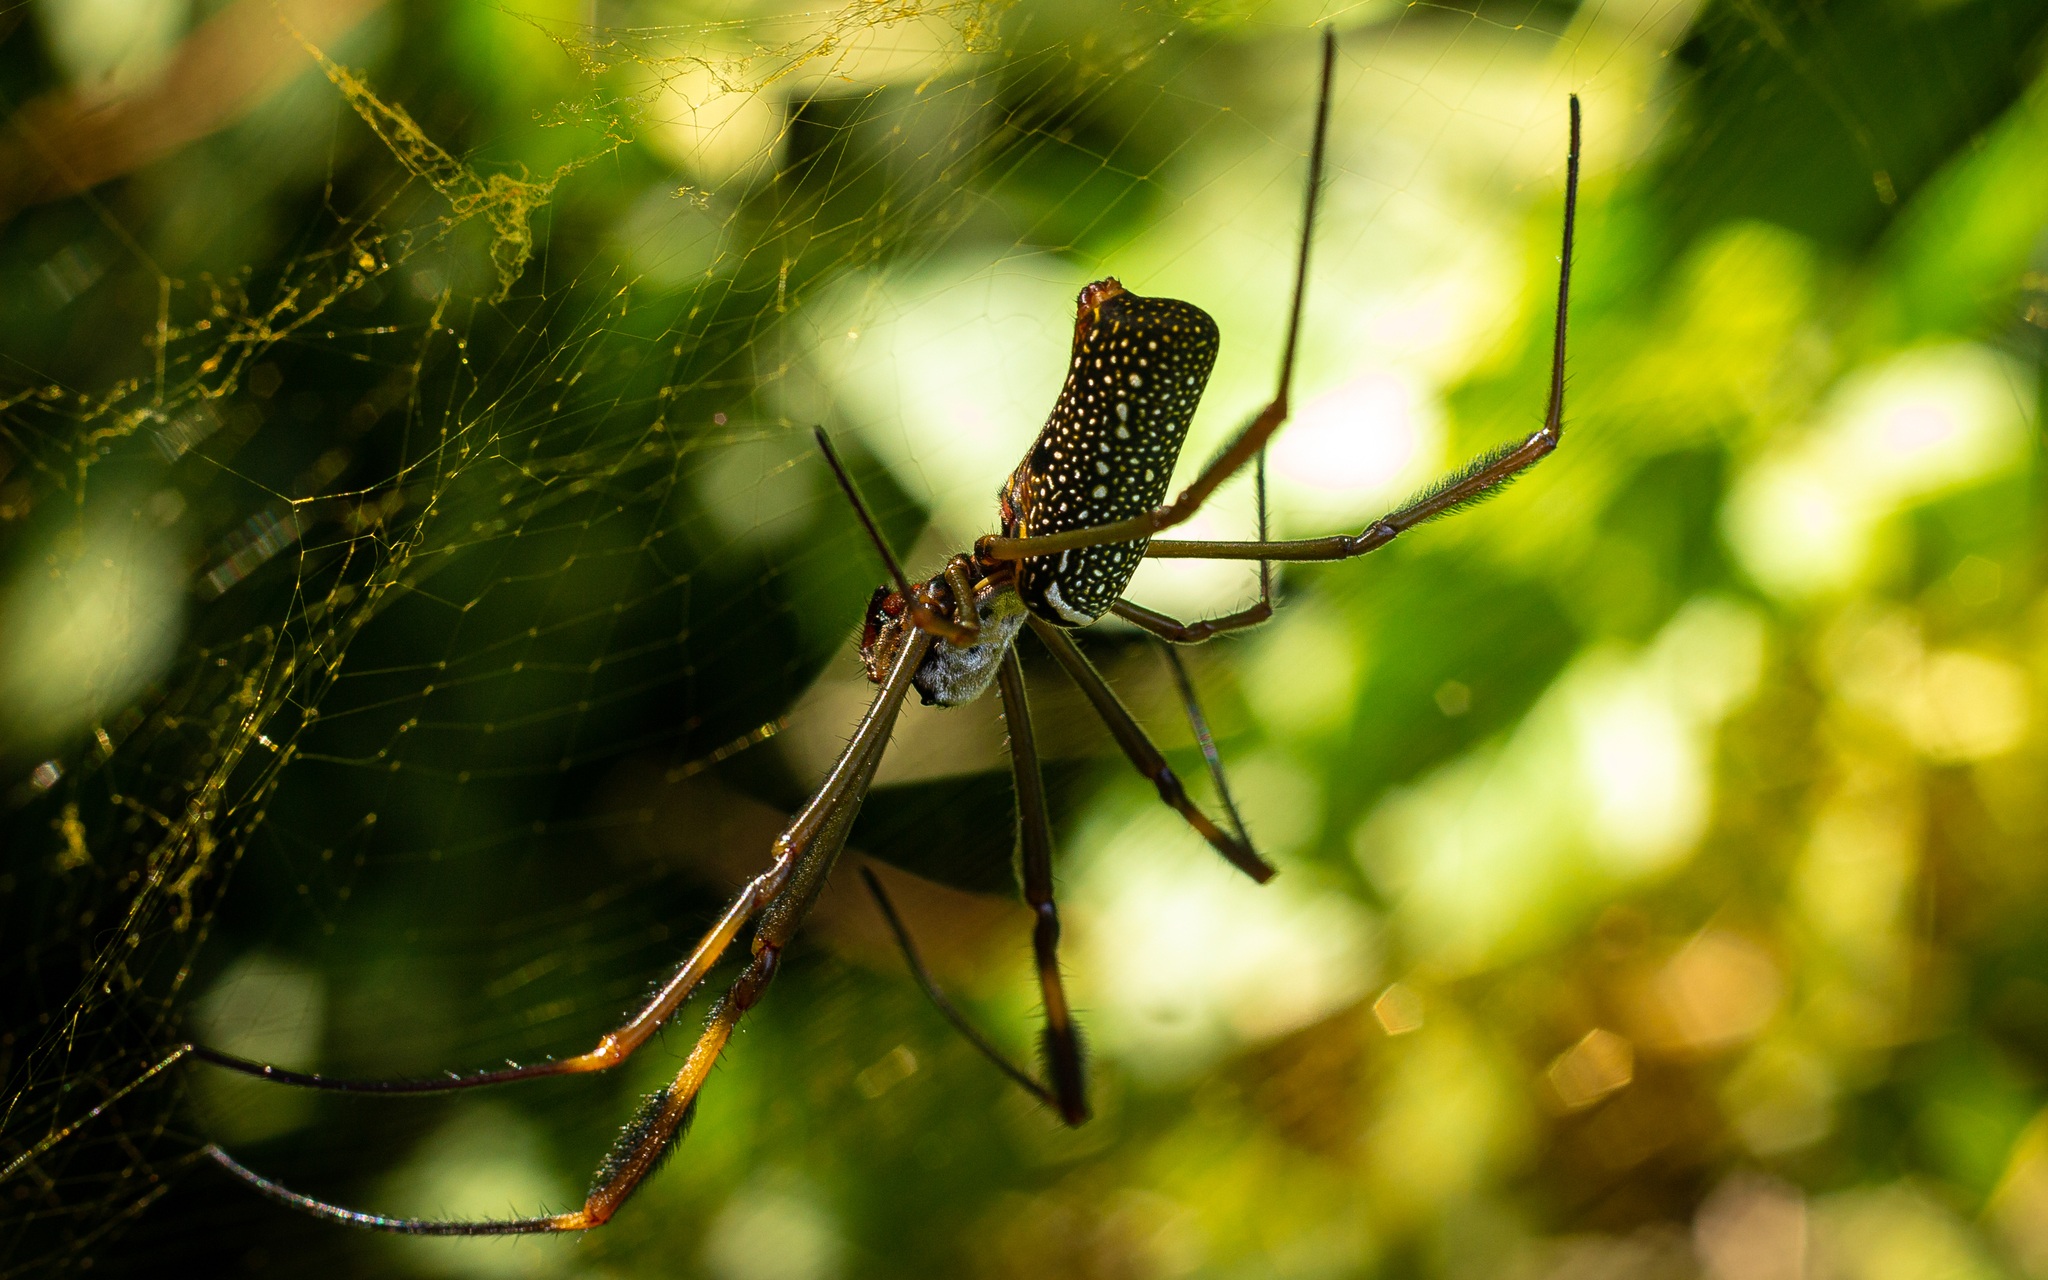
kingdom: Animalia
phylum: Arthropoda
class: Arachnida
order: Araneae
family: Araneidae
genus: Trichonephila
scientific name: Trichonephila clavipes
